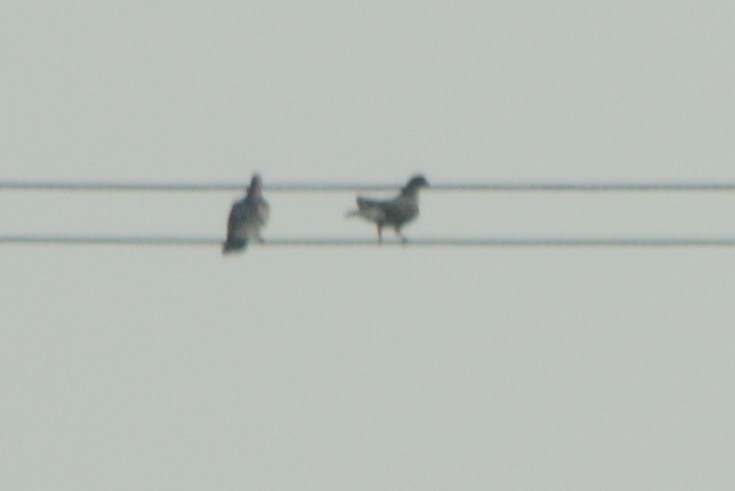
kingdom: Animalia
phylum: Chordata
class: Aves
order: Columbiformes
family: Columbidae
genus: Columba
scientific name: Columba livia
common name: Rock pigeon
